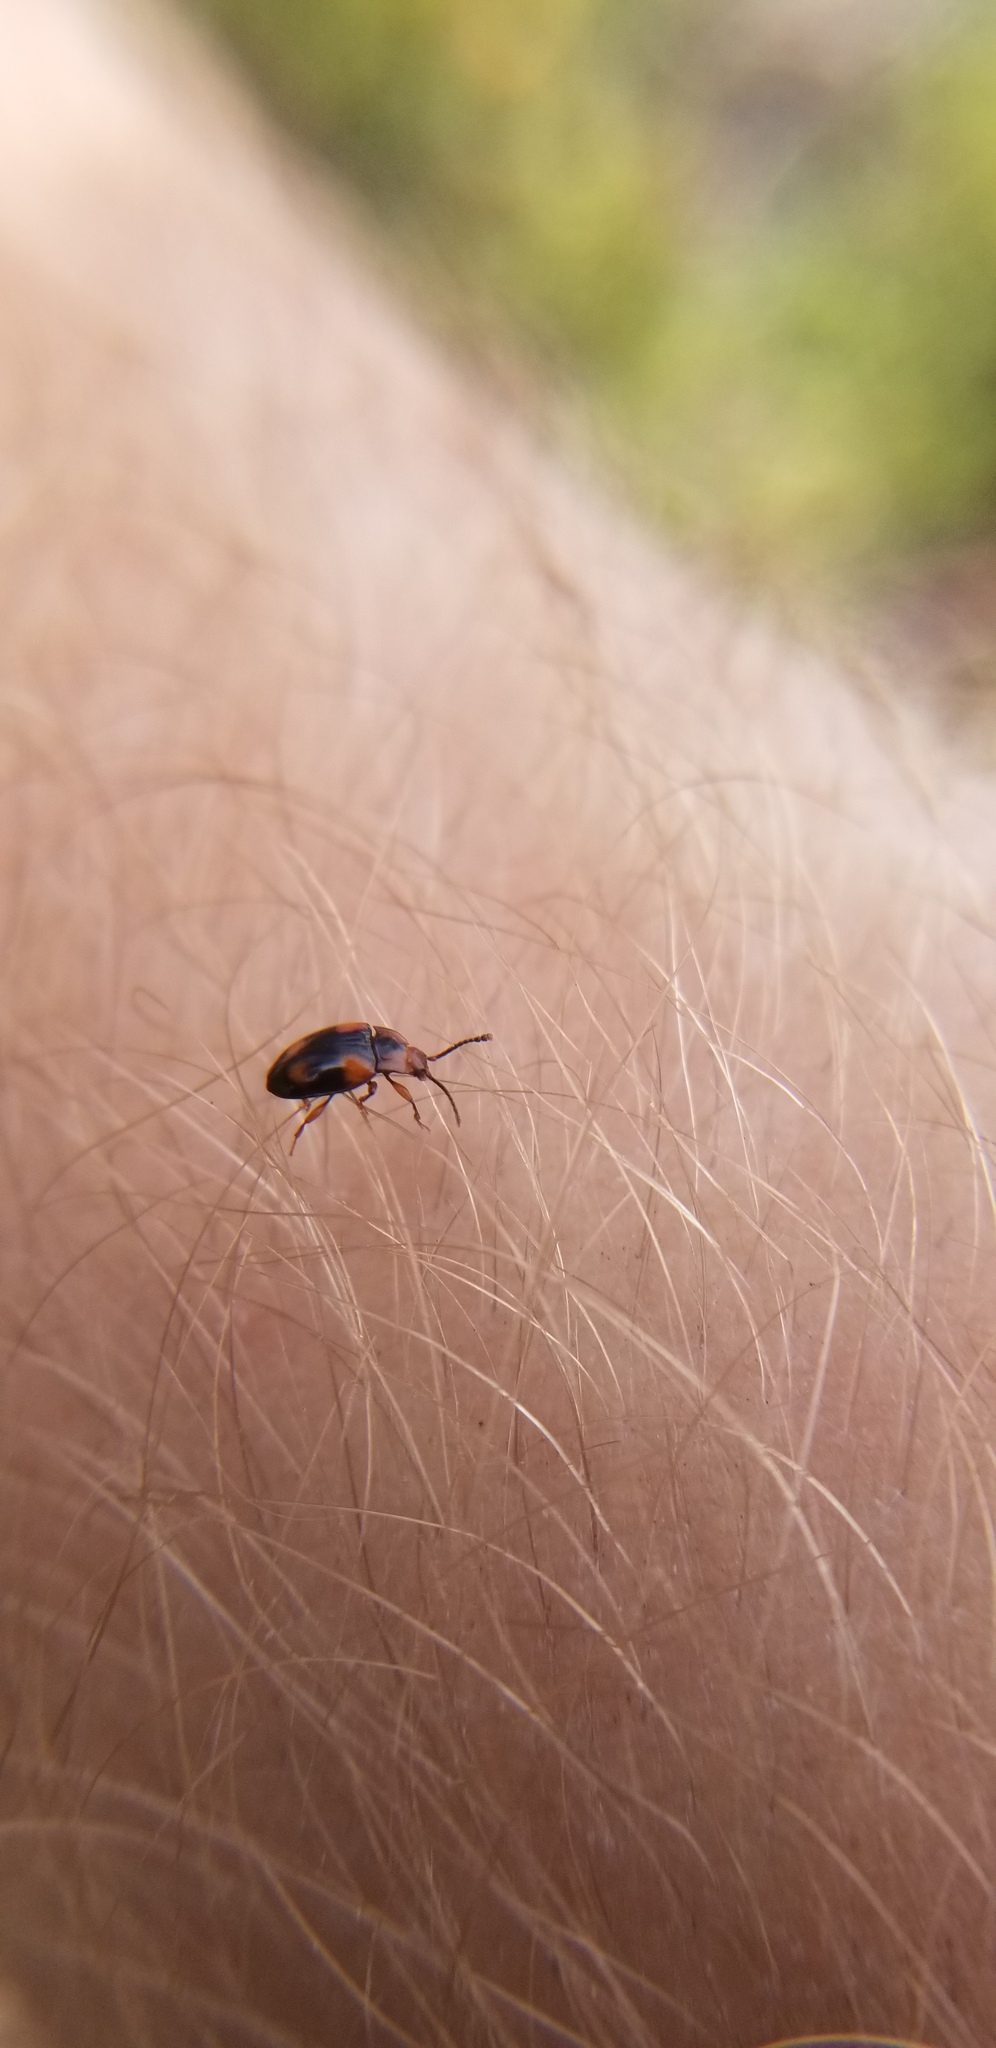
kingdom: Animalia
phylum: Arthropoda
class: Insecta
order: Coleoptera
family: Endomychidae
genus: Mycetina
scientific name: Mycetina hornii
